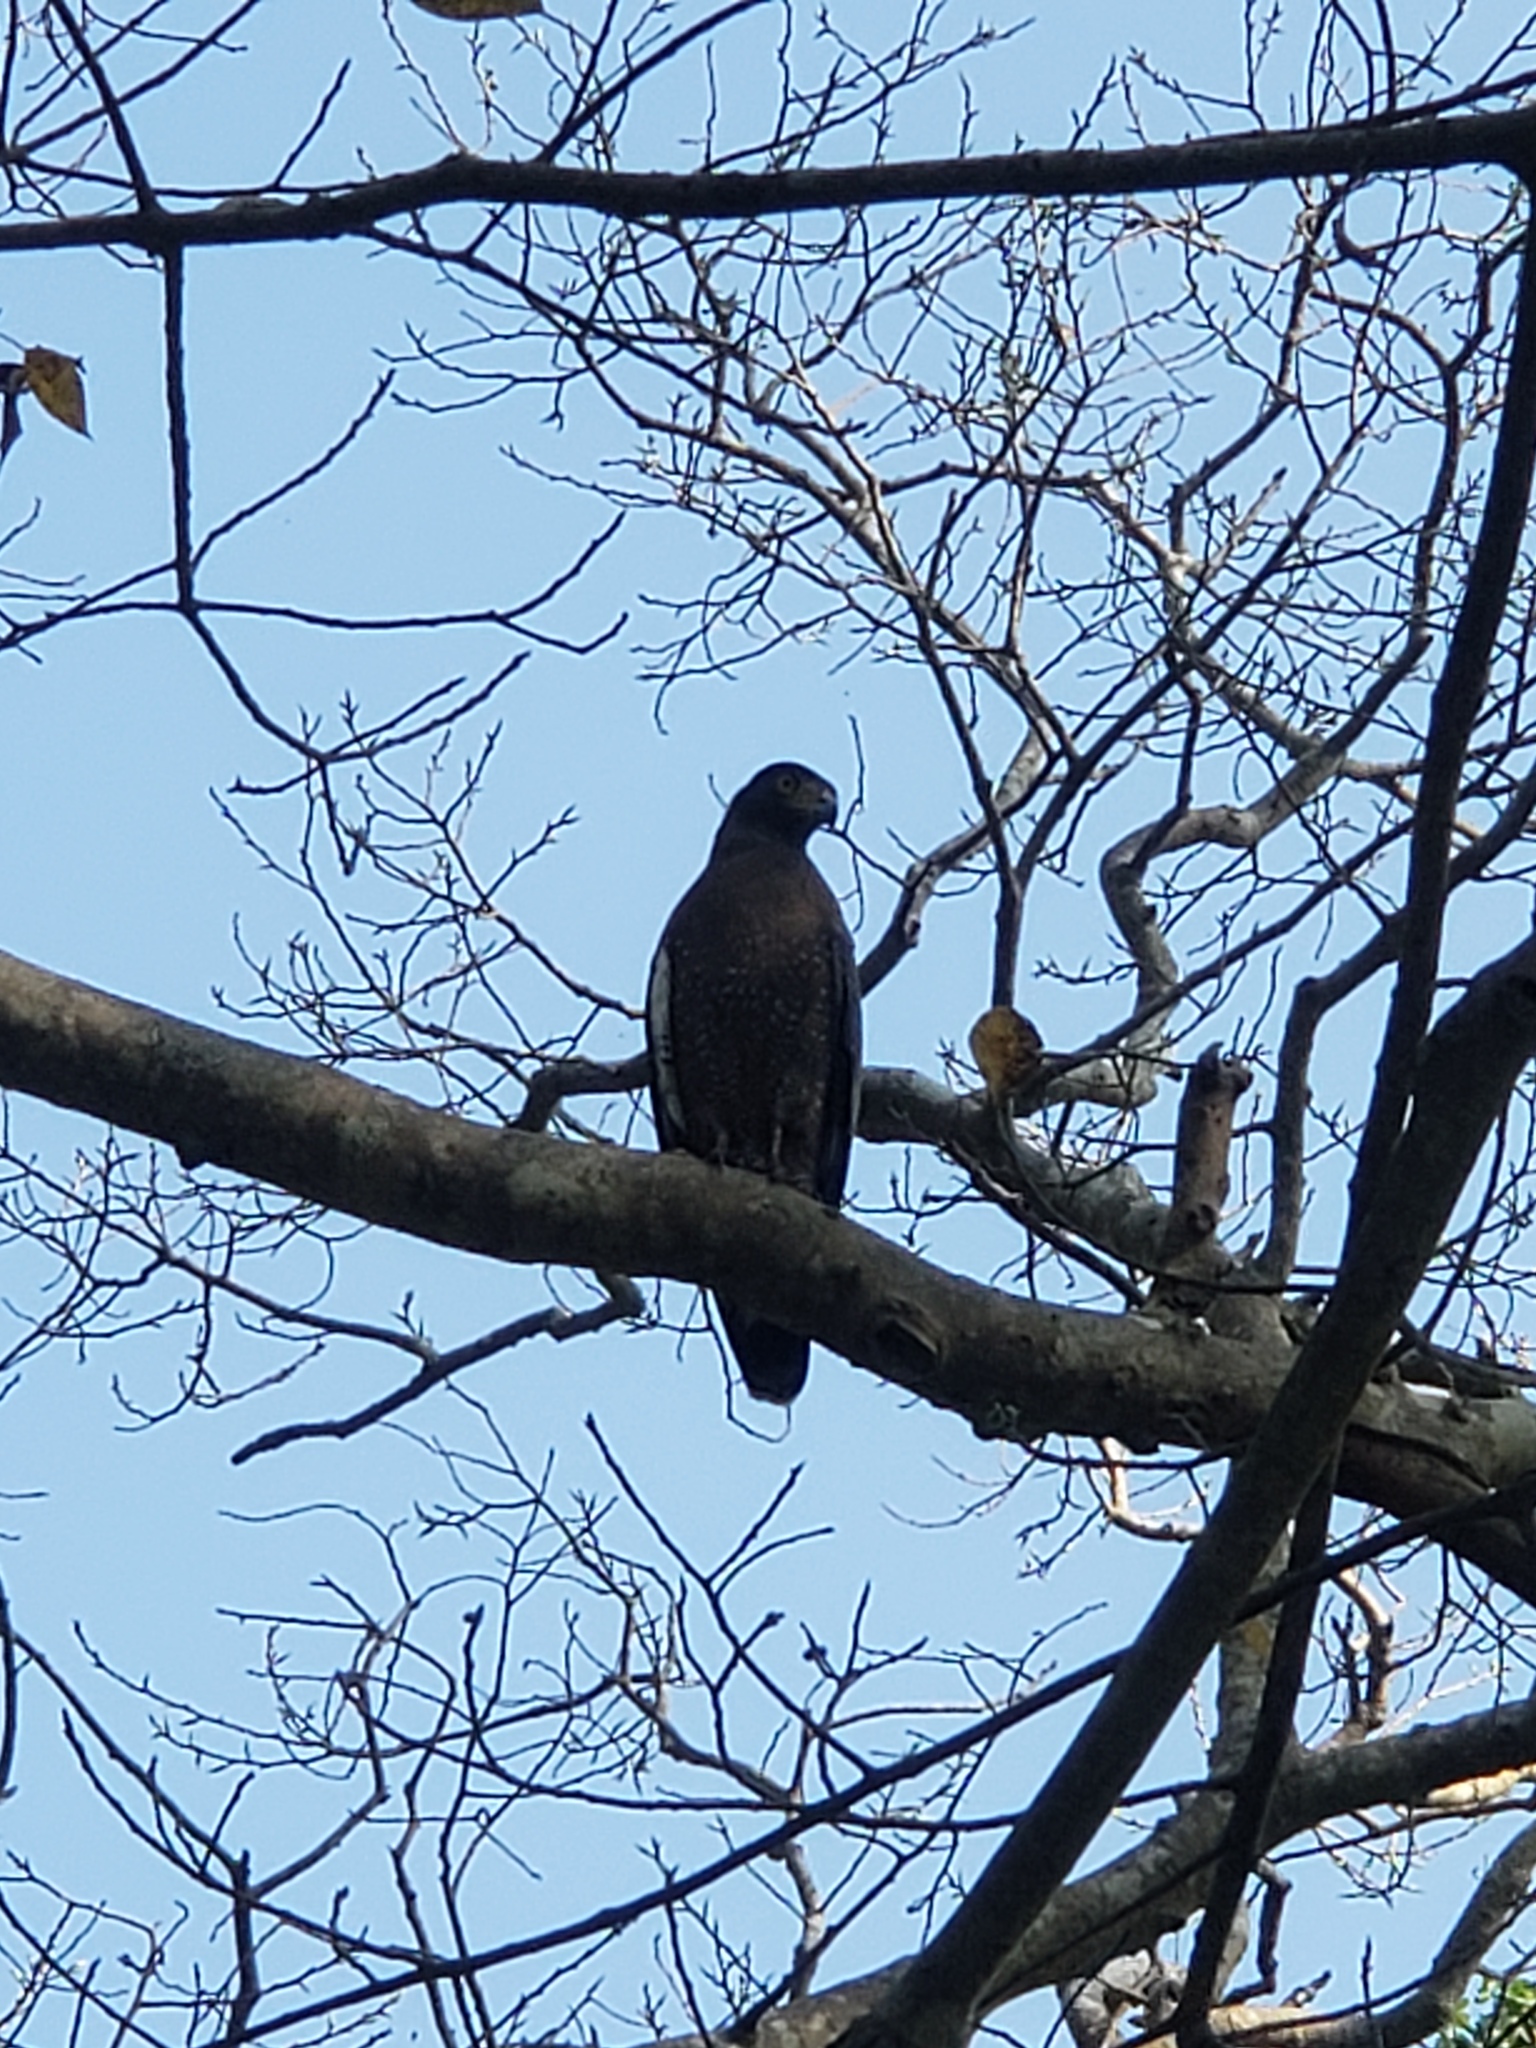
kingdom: Animalia
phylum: Chordata
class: Aves
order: Accipitriformes
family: Accipitridae
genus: Spilornis
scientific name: Spilornis cheela
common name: Crested serpent eagle
